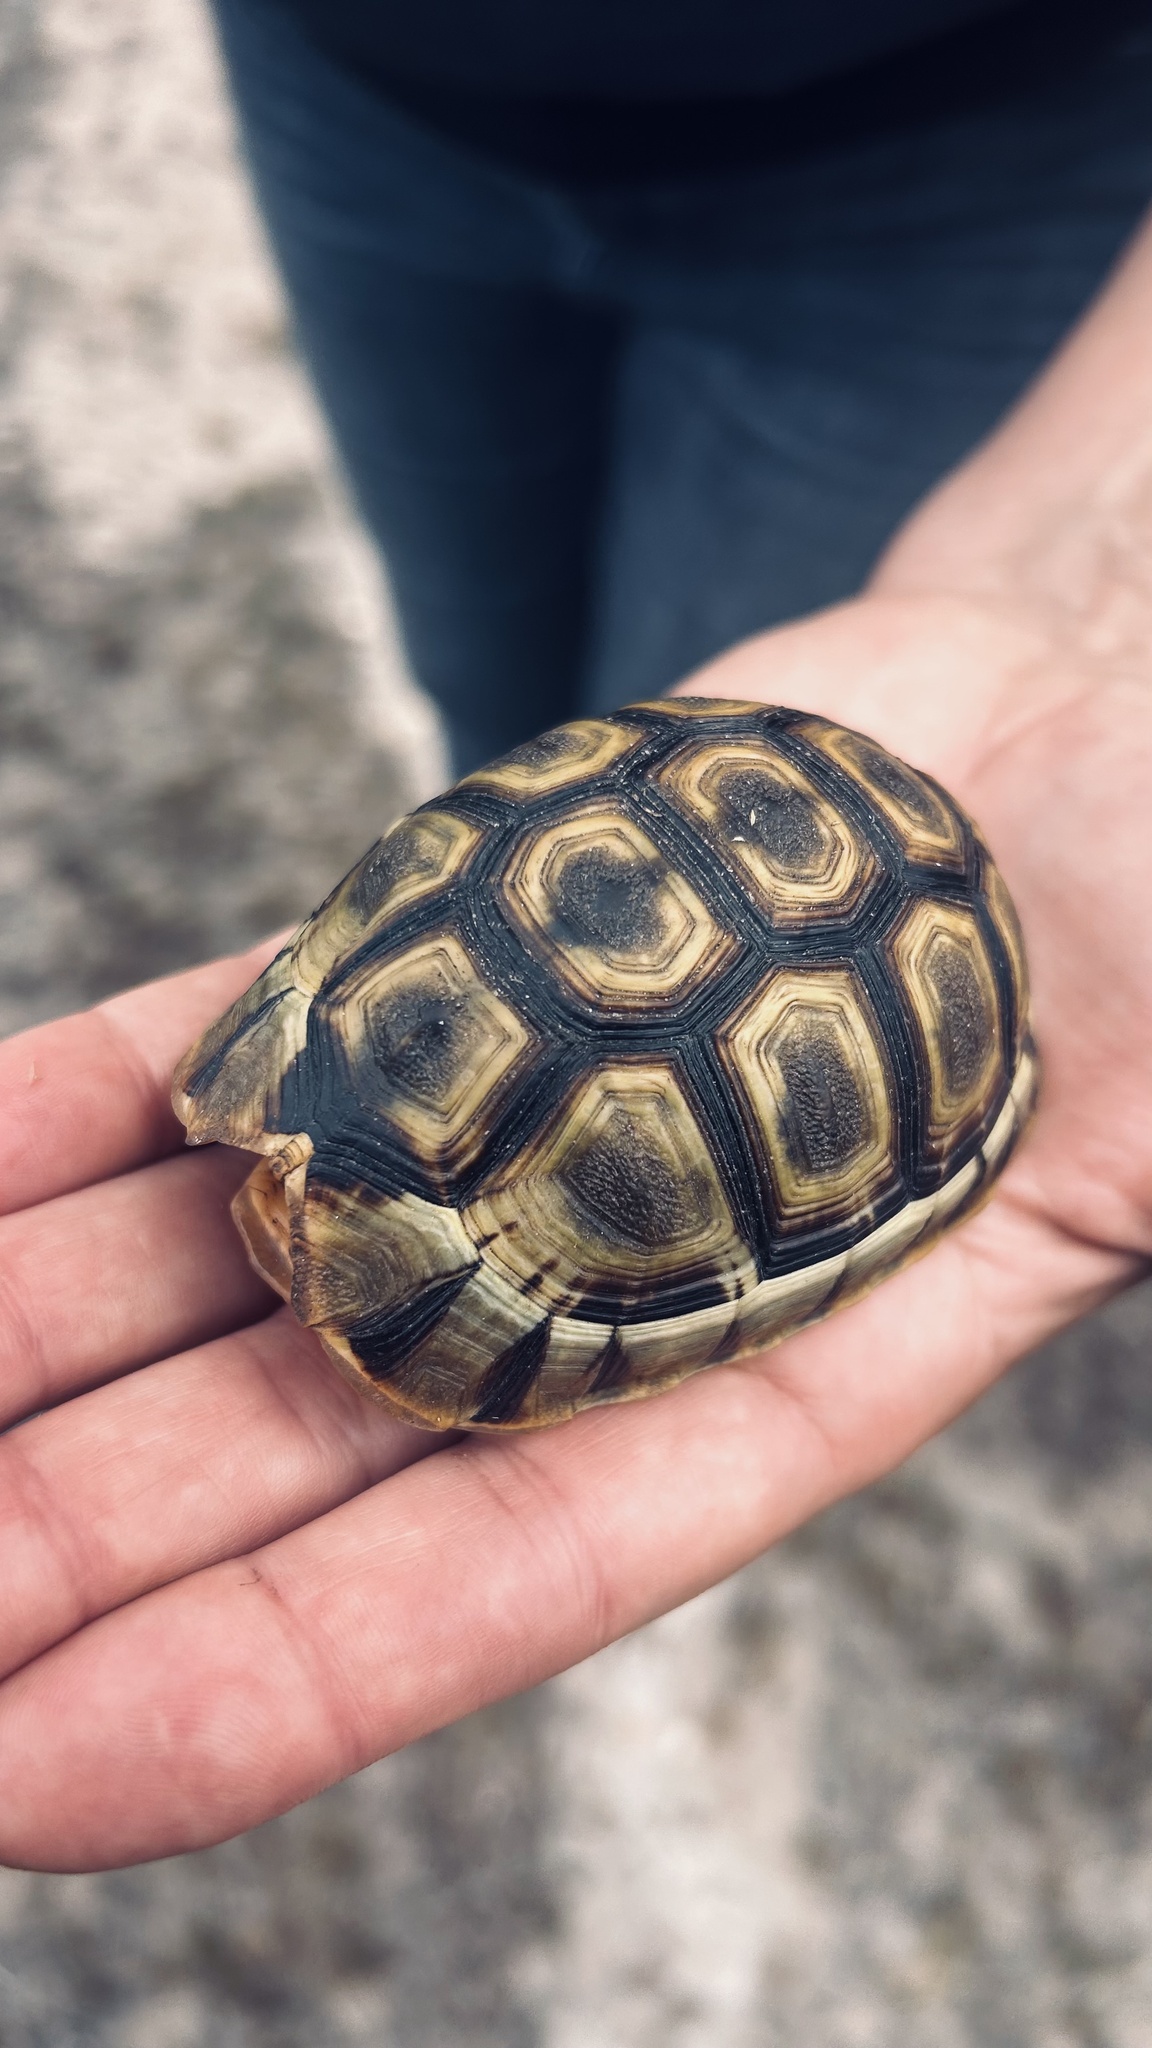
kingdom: Animalia
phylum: Chordata
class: Testudines
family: Testudinidae
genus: Chersina
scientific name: Chersina angulata
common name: South african bowsprit tortoise
